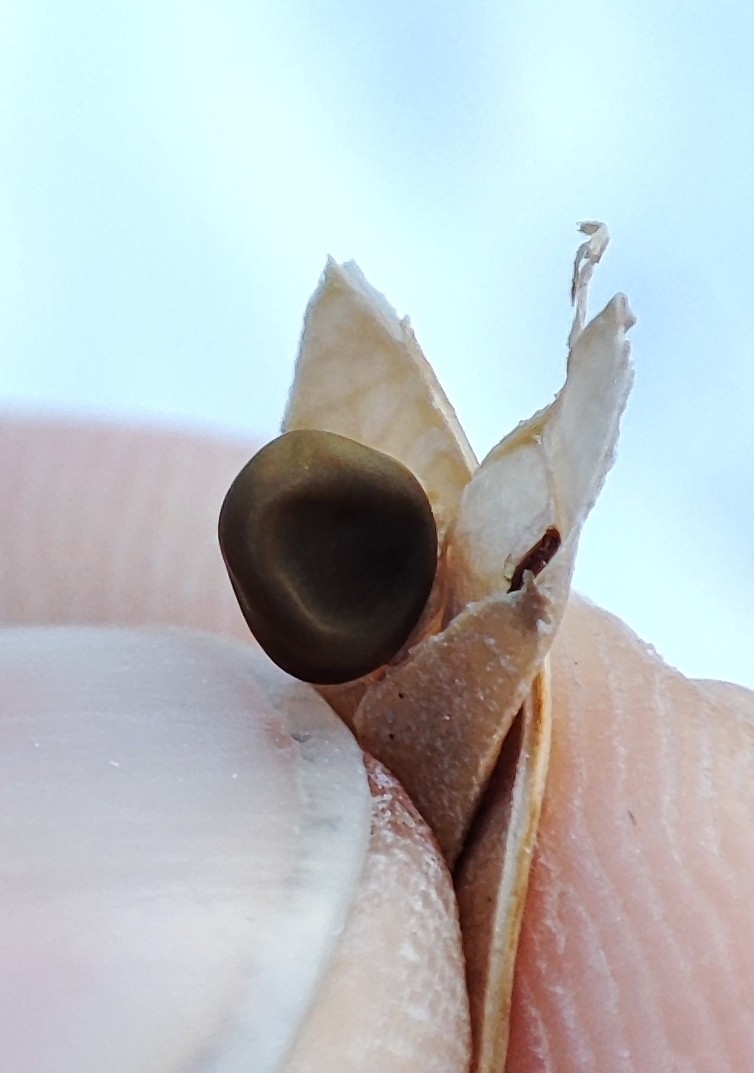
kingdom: Plantae
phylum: Tracheophyta
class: Magnoliopsida
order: Fabales
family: Fabaceae
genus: Vicia
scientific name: Vicia cracca
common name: Bird vetch
